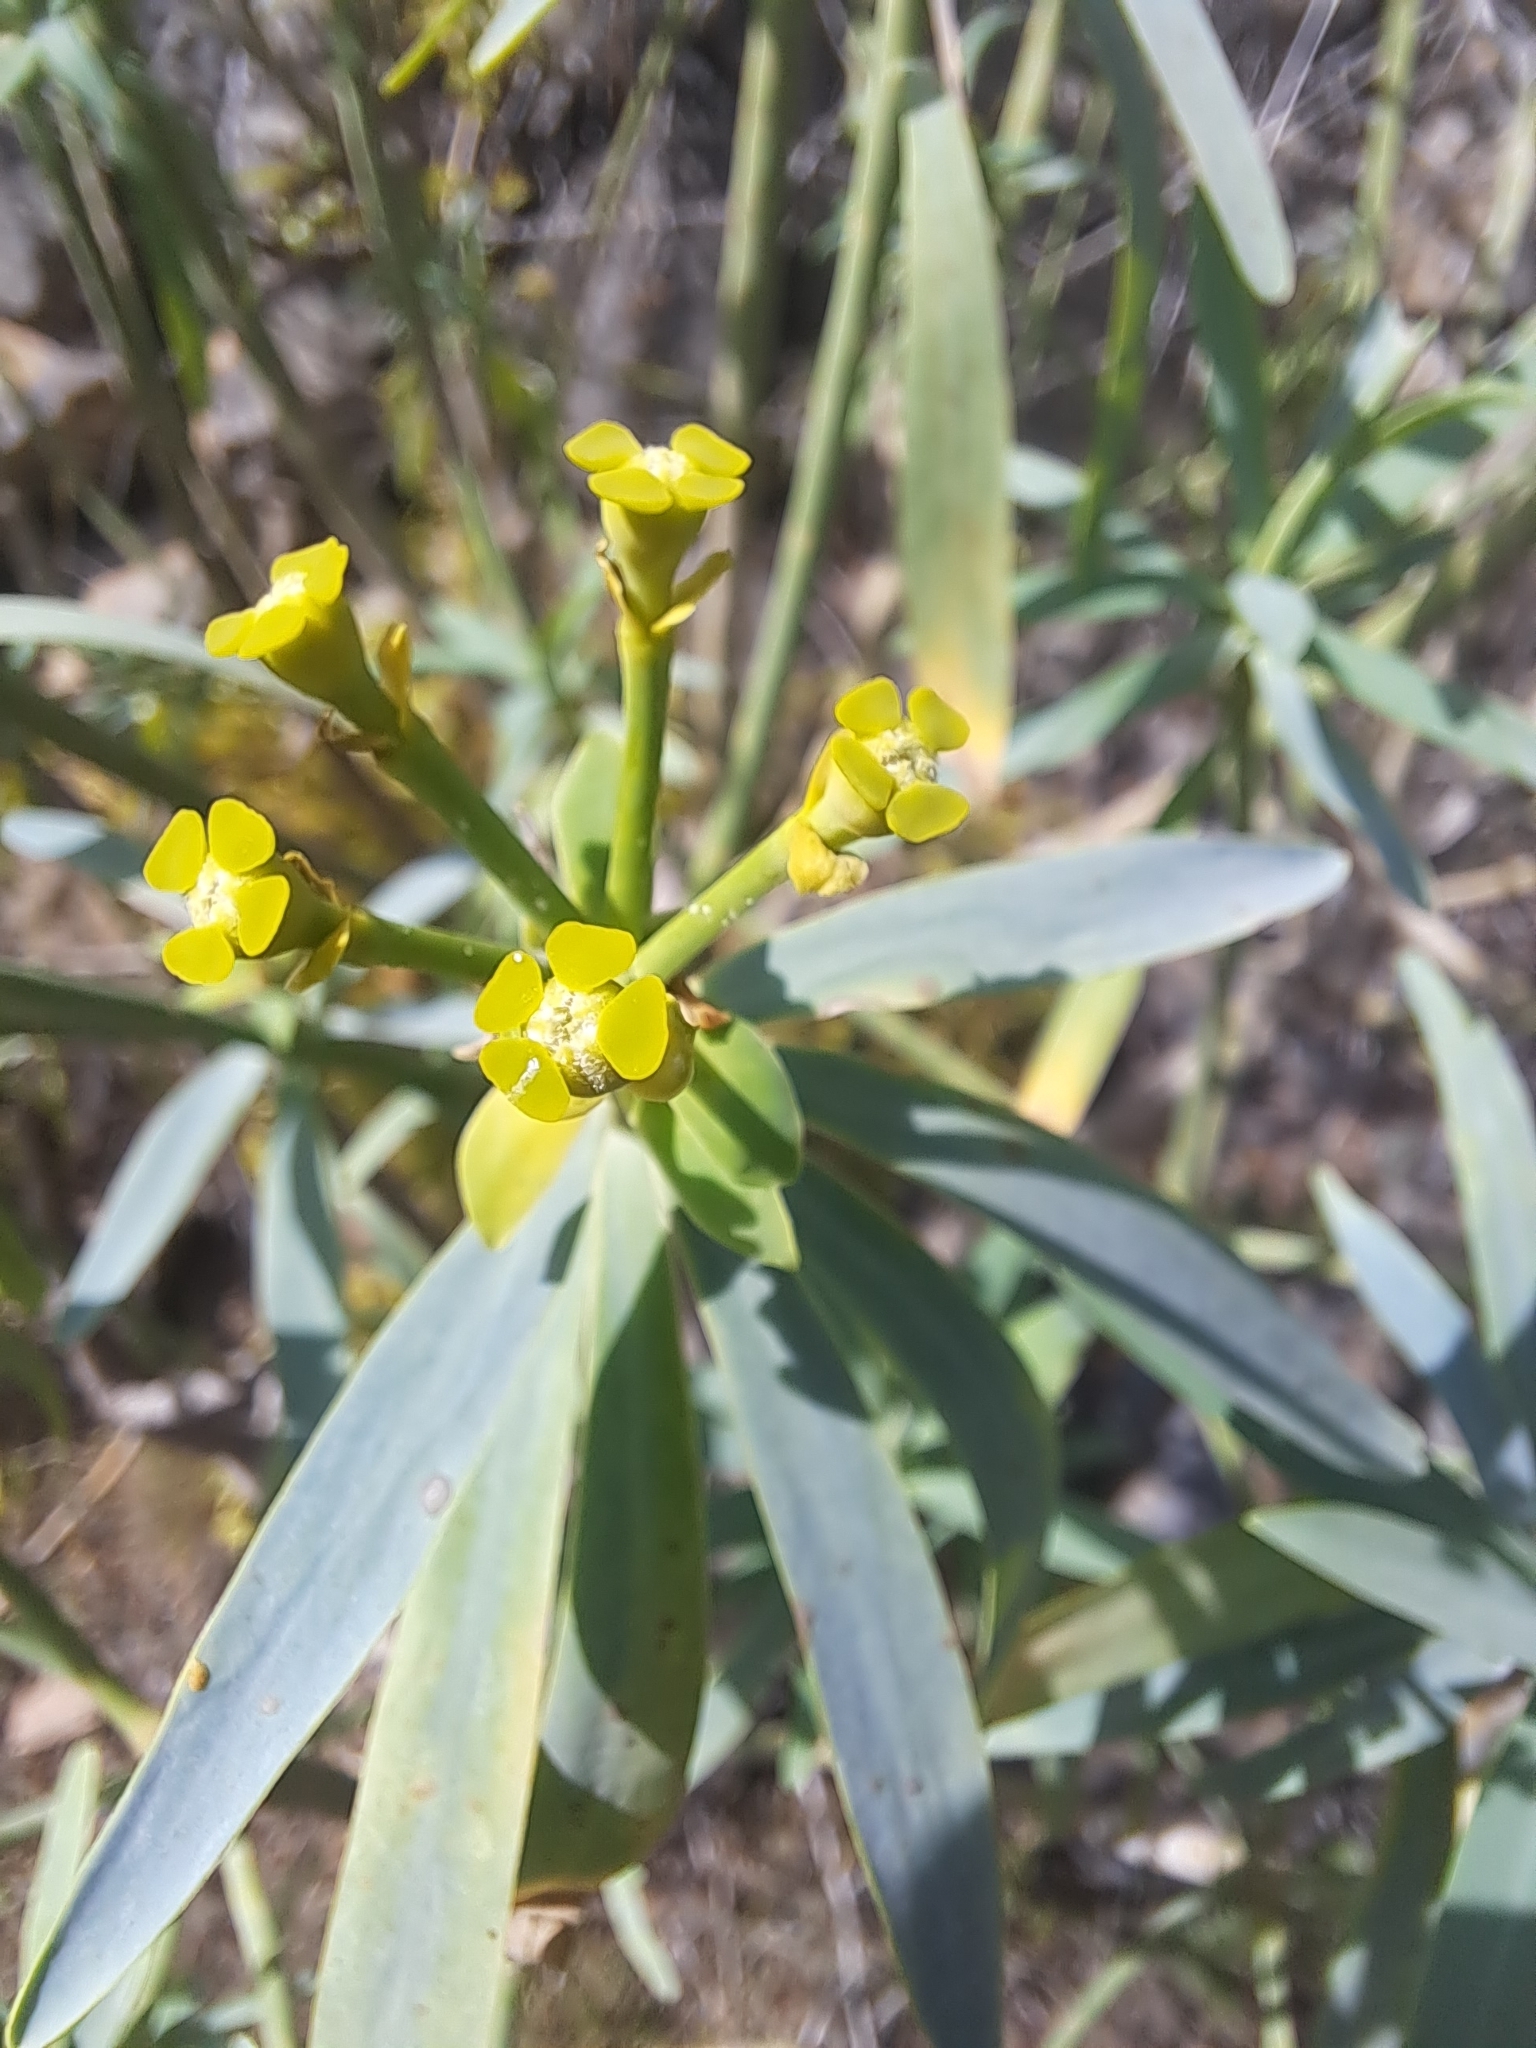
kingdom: Plantae
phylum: Tracheophyta
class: Magnoliopsida
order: Malpighiales
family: Euphorbiaceae
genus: Euphorbia
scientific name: Euphorbia lamarckii
